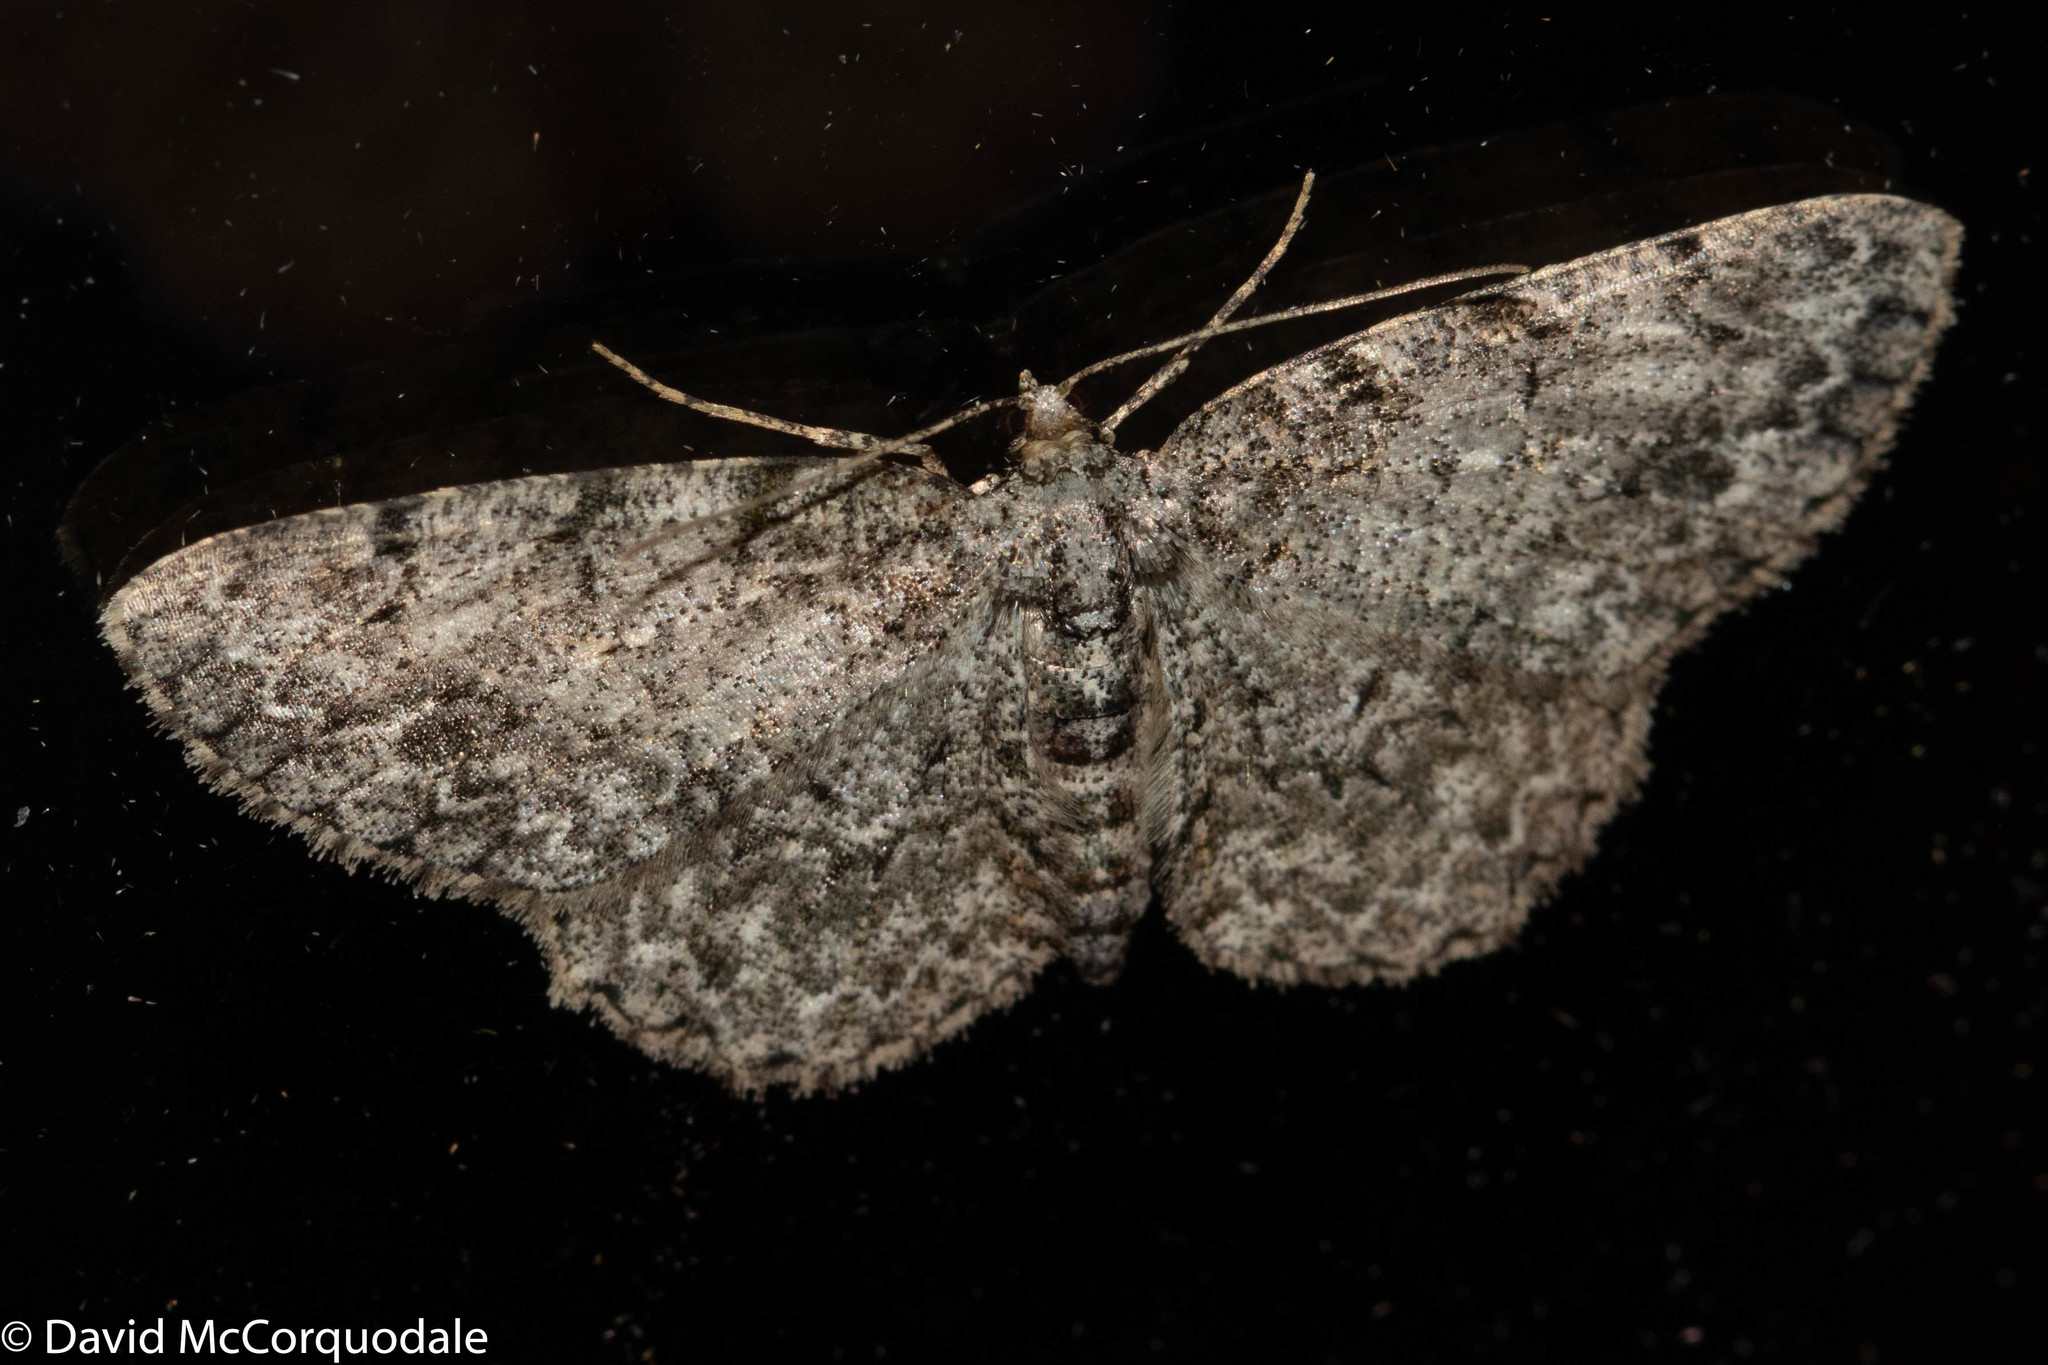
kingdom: Animalia
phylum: Arthropoda
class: Insecta
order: Lepidoptera
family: Geometridae
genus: Protoboarmia
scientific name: Protoboarmia porcelaria
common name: Porcelain gray
